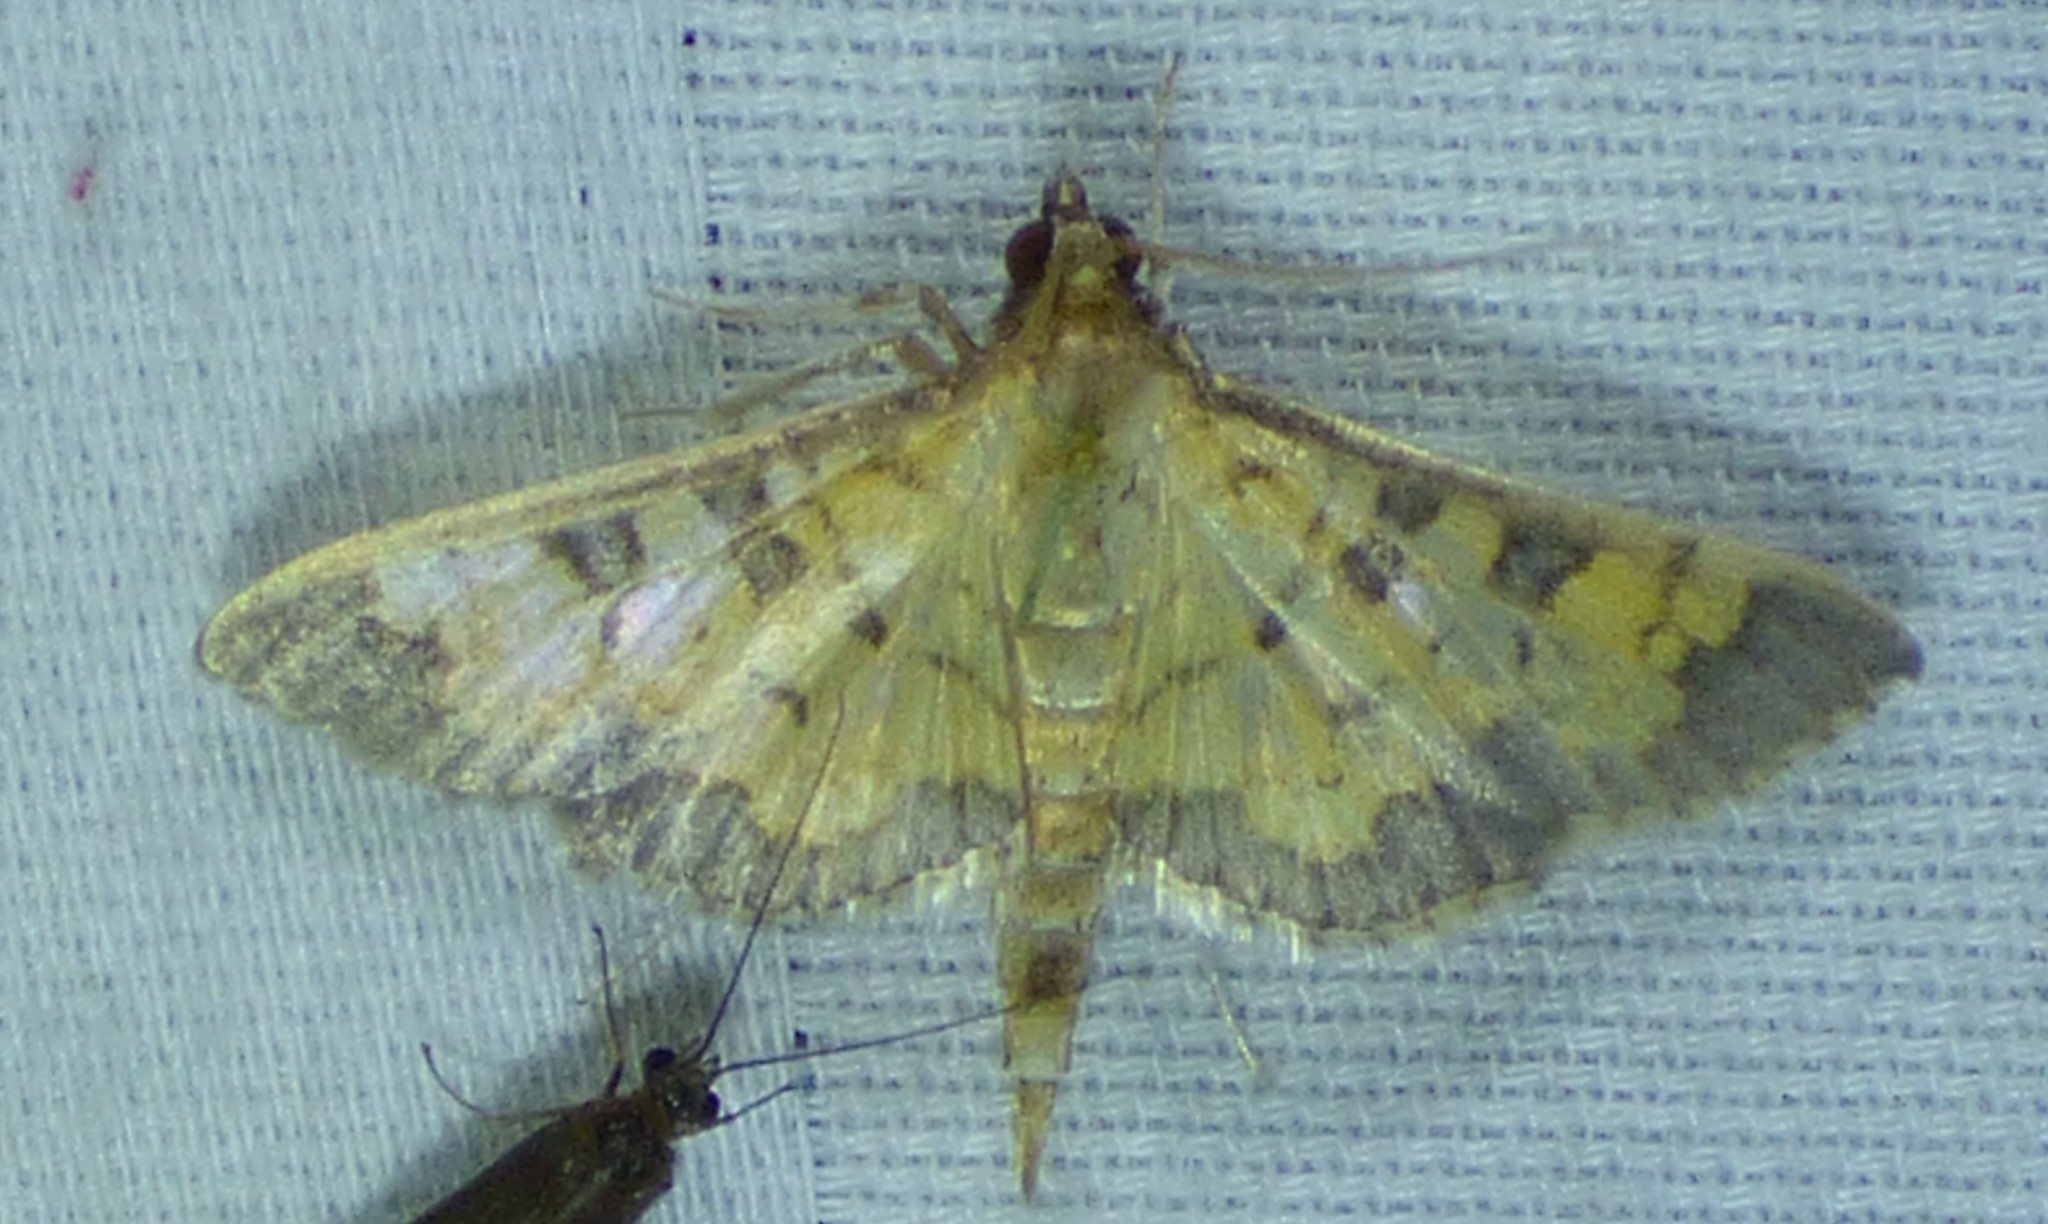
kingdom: Animalia
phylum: Arthropoda
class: Insecta
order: Lepidoptera
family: Crambidae
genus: Cryptographis
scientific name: Cryptographis elealis
